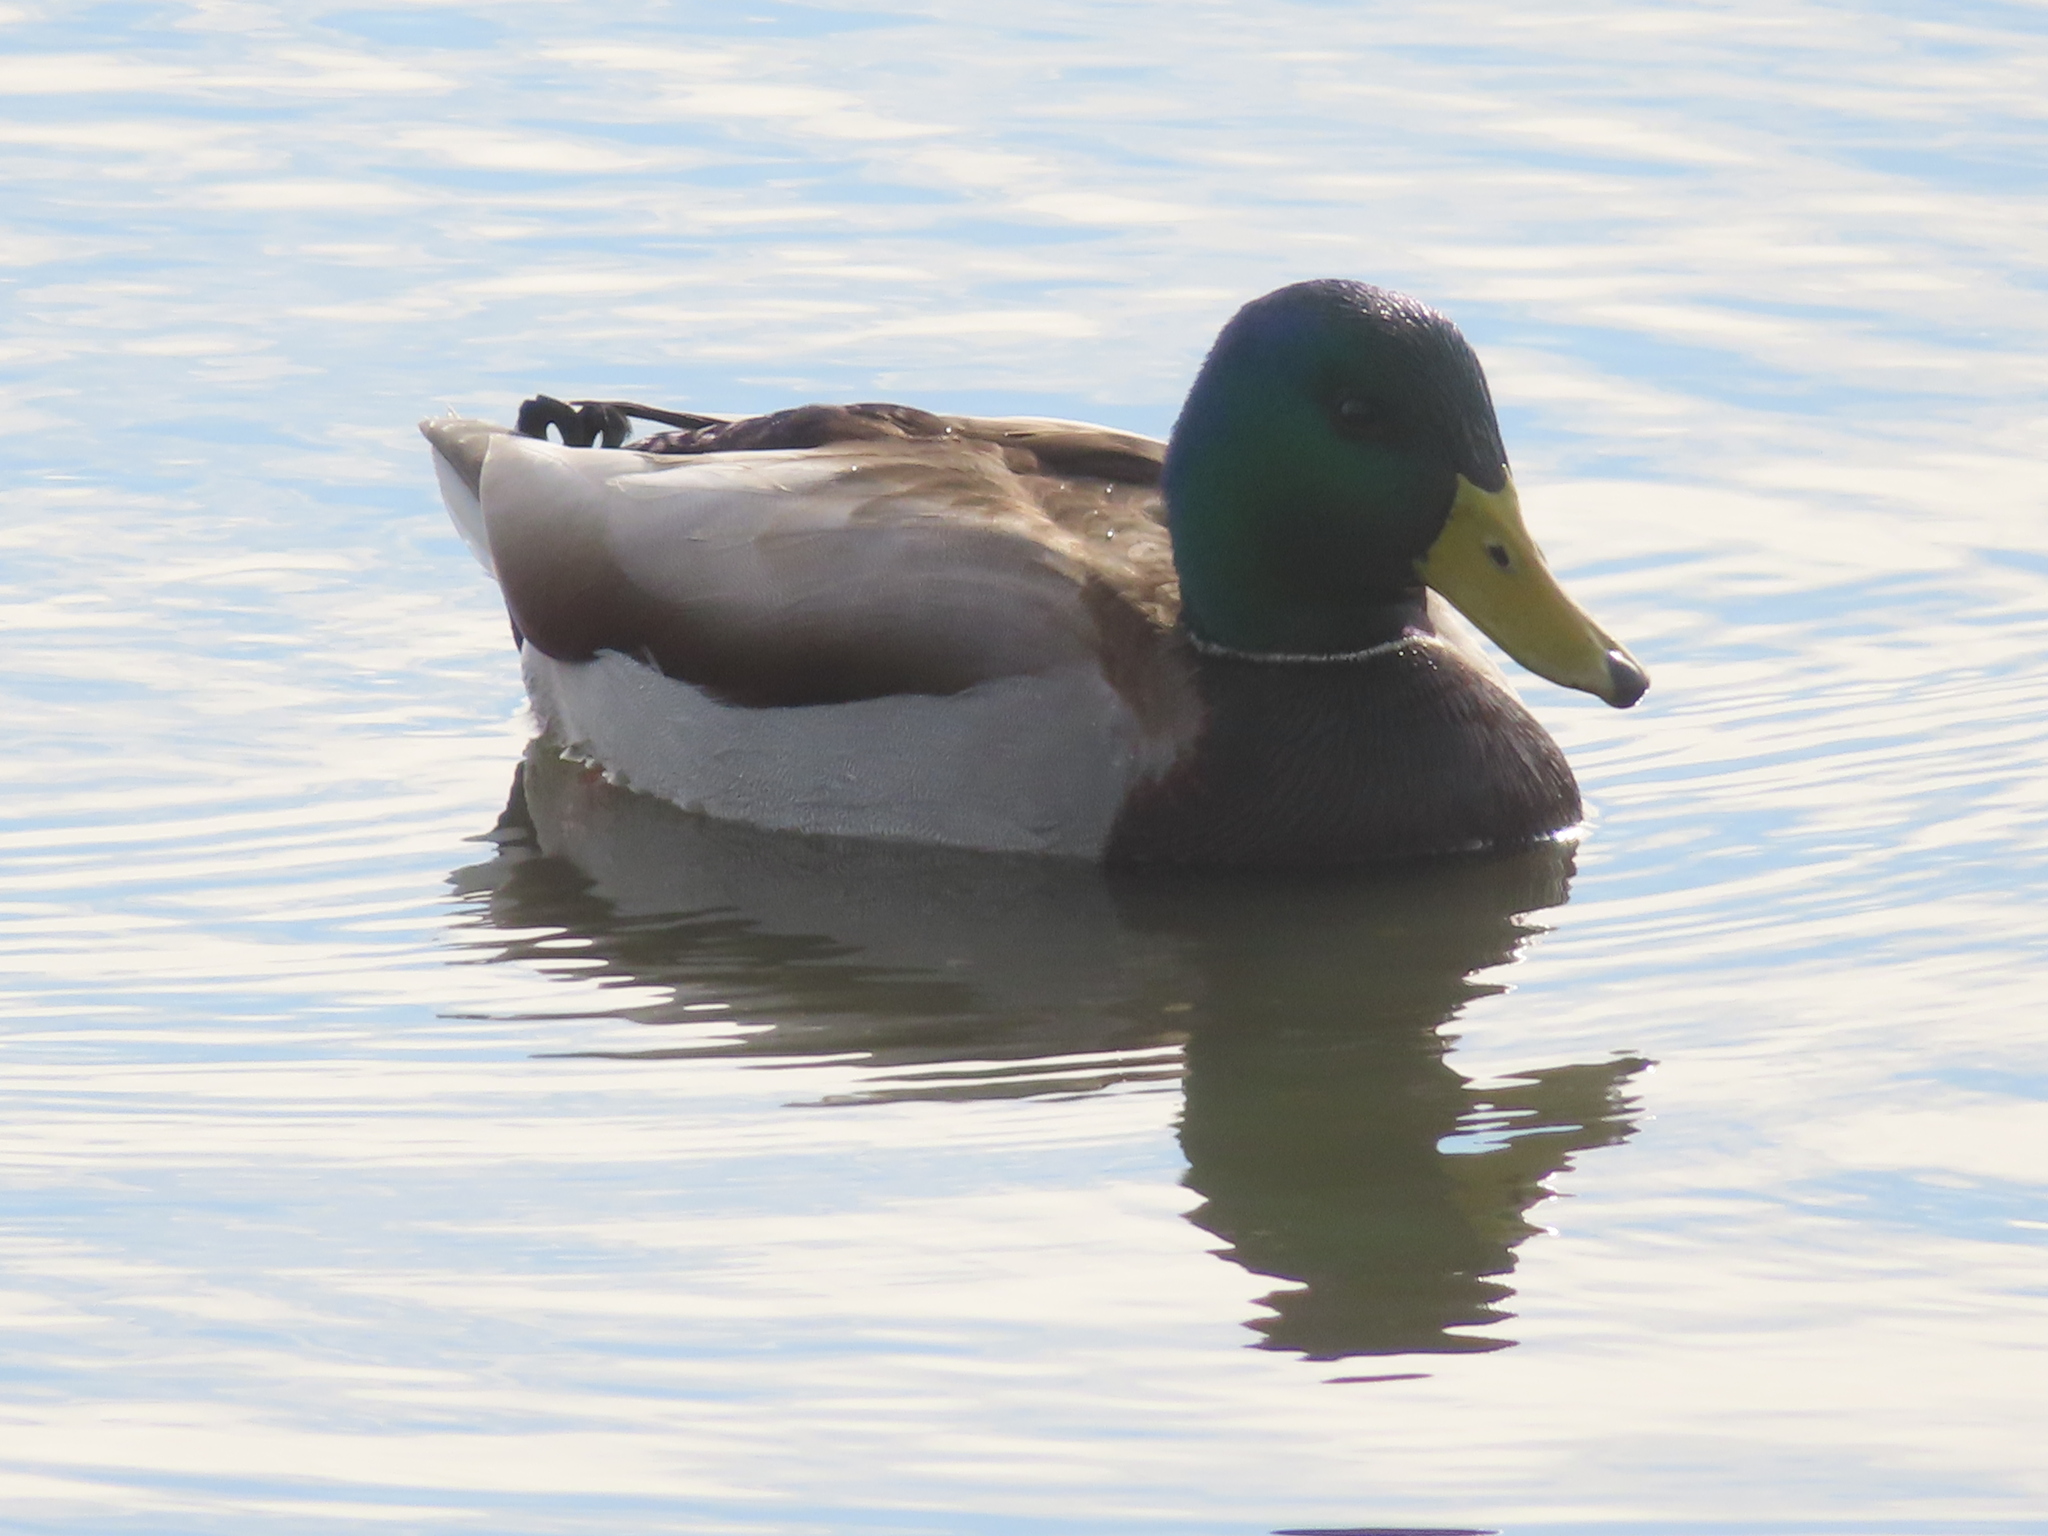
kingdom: Animalia
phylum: Chordata
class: Aves
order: Anseriformes
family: Anatidae
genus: Anas
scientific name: Anas platyrhynchos
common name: Mallard
